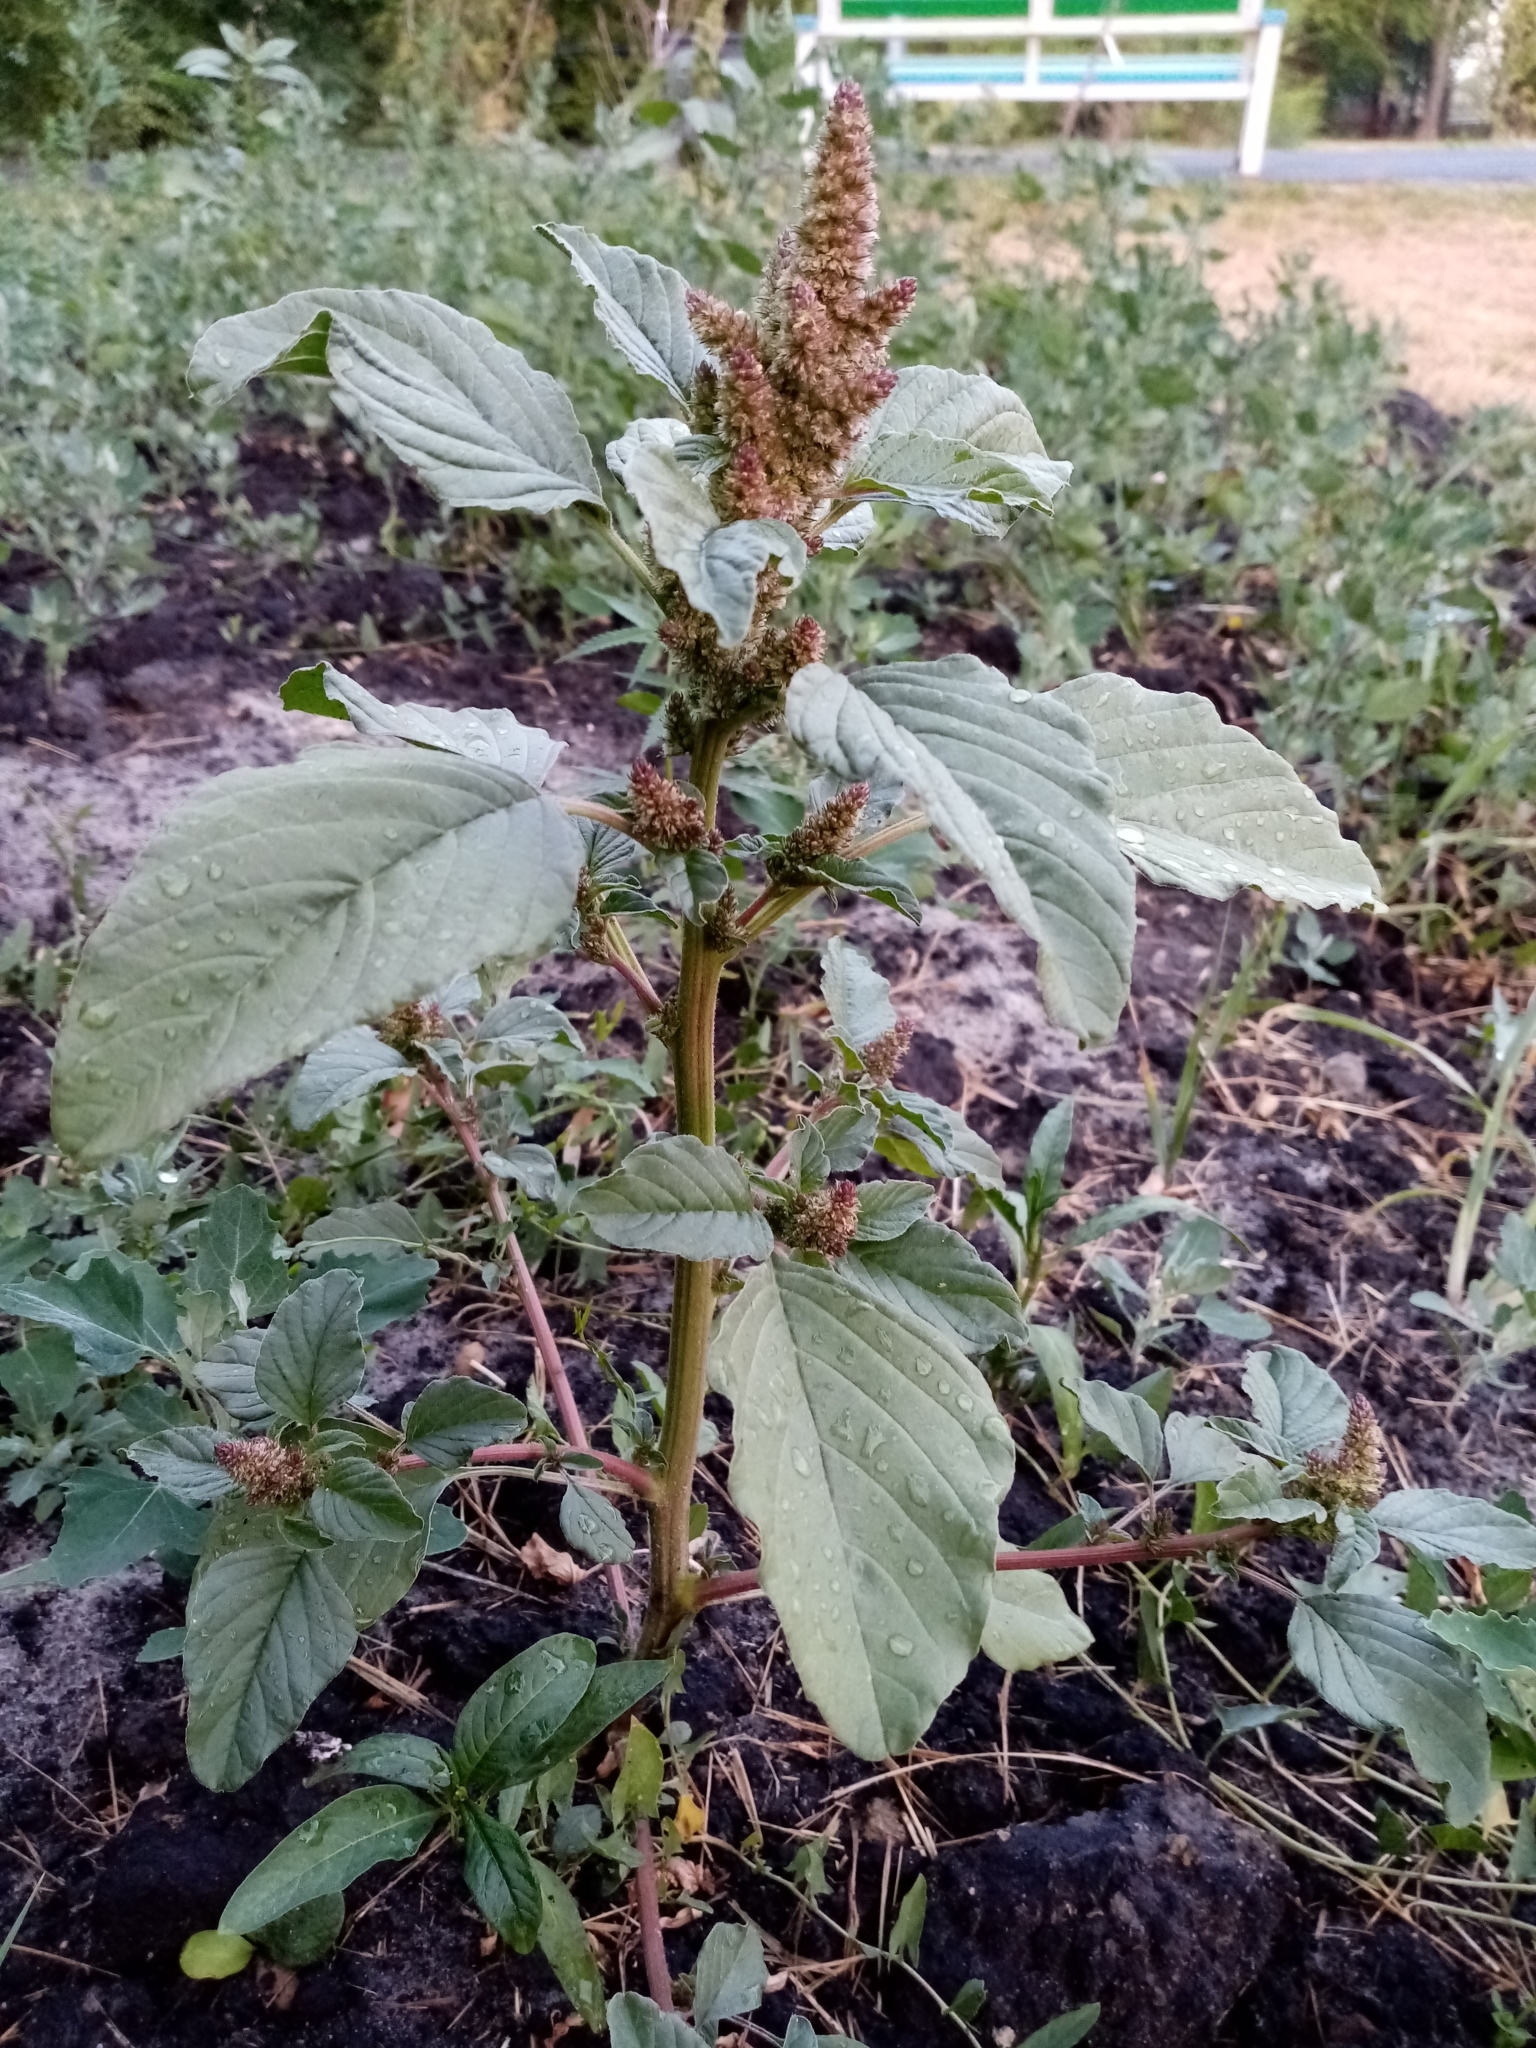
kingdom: Plantae
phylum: Tracheophyta
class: Magnoliopsida
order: Caryophyllales
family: Amaranthaceae
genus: Amaranthus
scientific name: Amaranthus retroflexus
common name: Redroot amaranth
